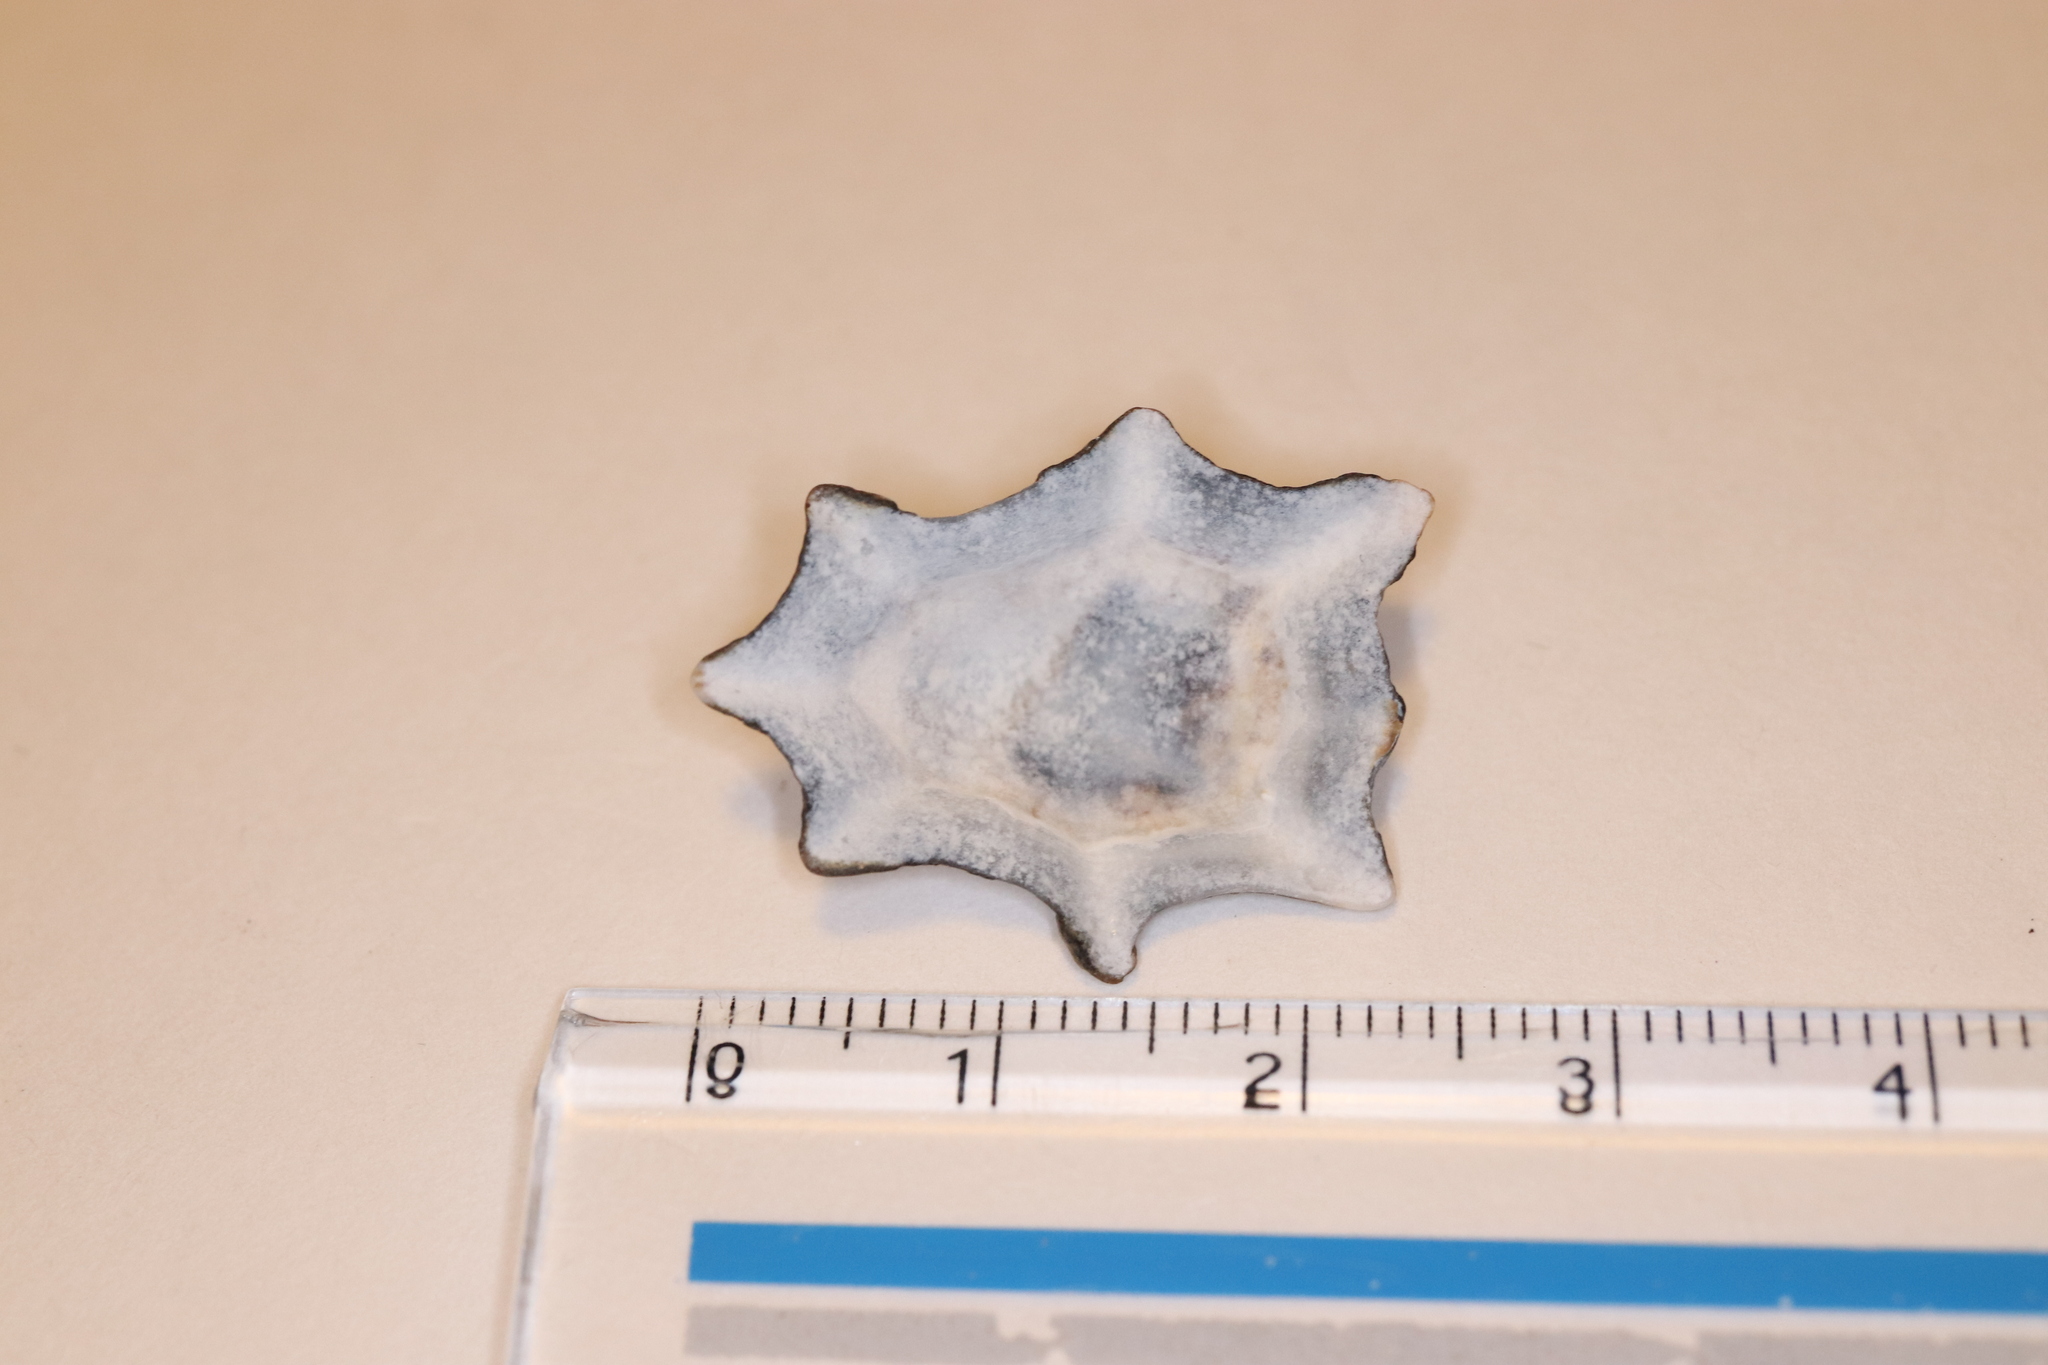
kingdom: Animalia
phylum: Mollusca
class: Gastropoda
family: Lottiidae
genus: Patelloida
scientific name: Patelloida saccharina
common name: Pacific sugar limpet
